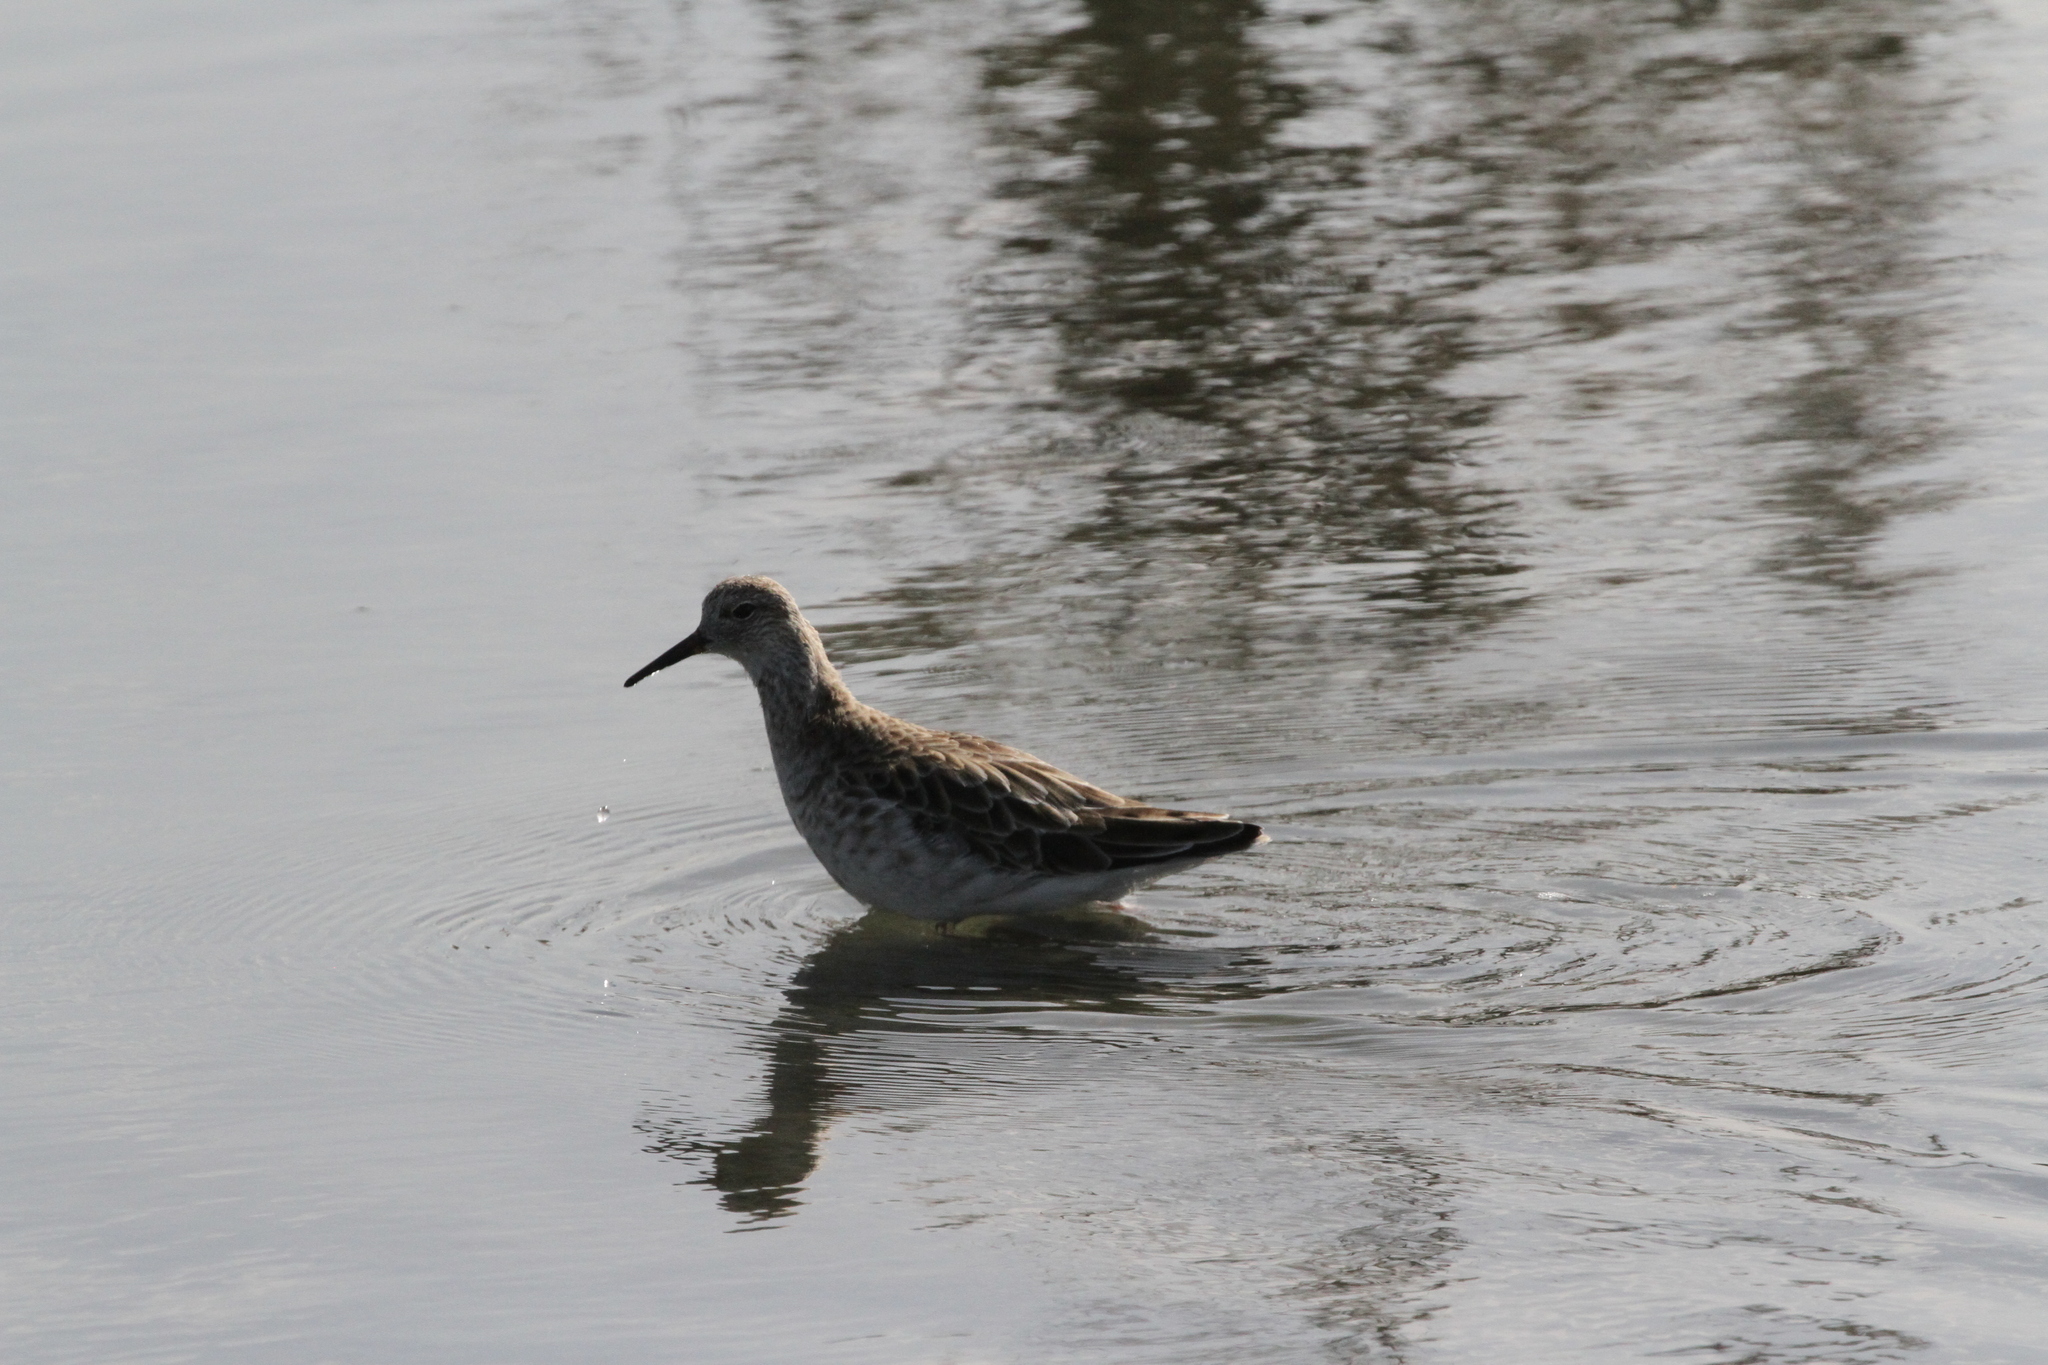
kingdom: Animalia
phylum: Chordata
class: Aves
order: Charadriiformes
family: Scolopacidae
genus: Calidris
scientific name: Calidris pugnax
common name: Ruff
